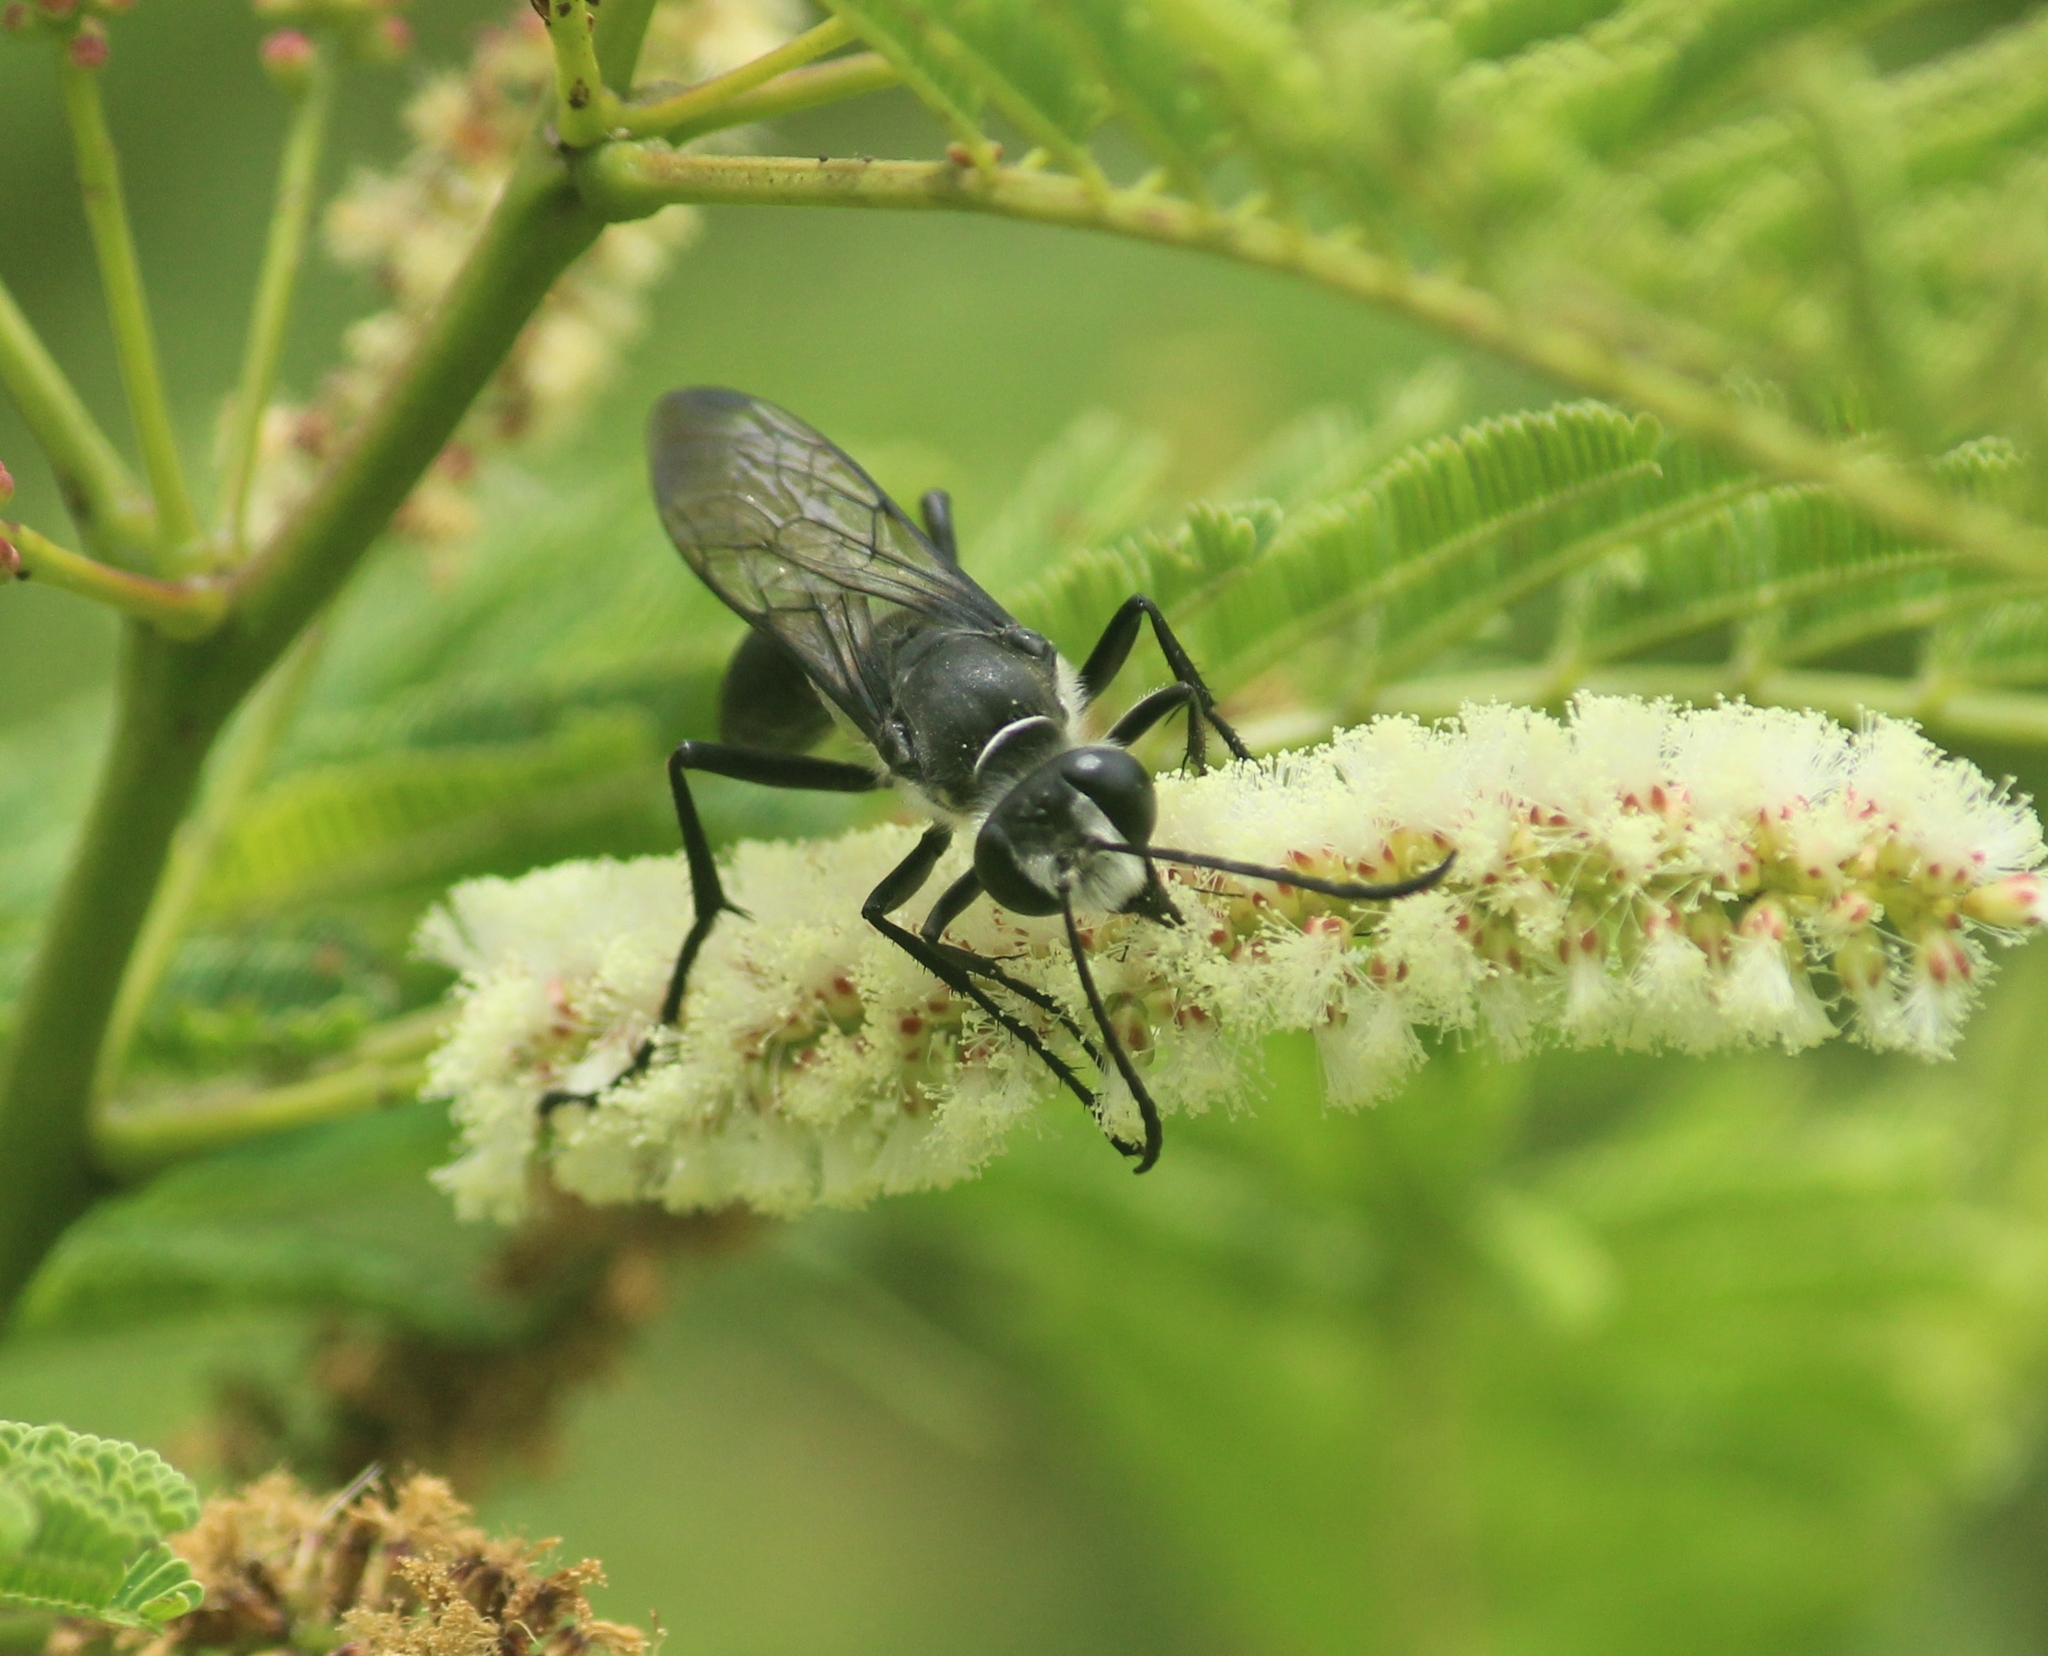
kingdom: Animalia
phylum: Arthropoda
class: Insecta
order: Hymenoptera
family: Sphecidae
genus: Sphex
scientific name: Sphex argentatus
